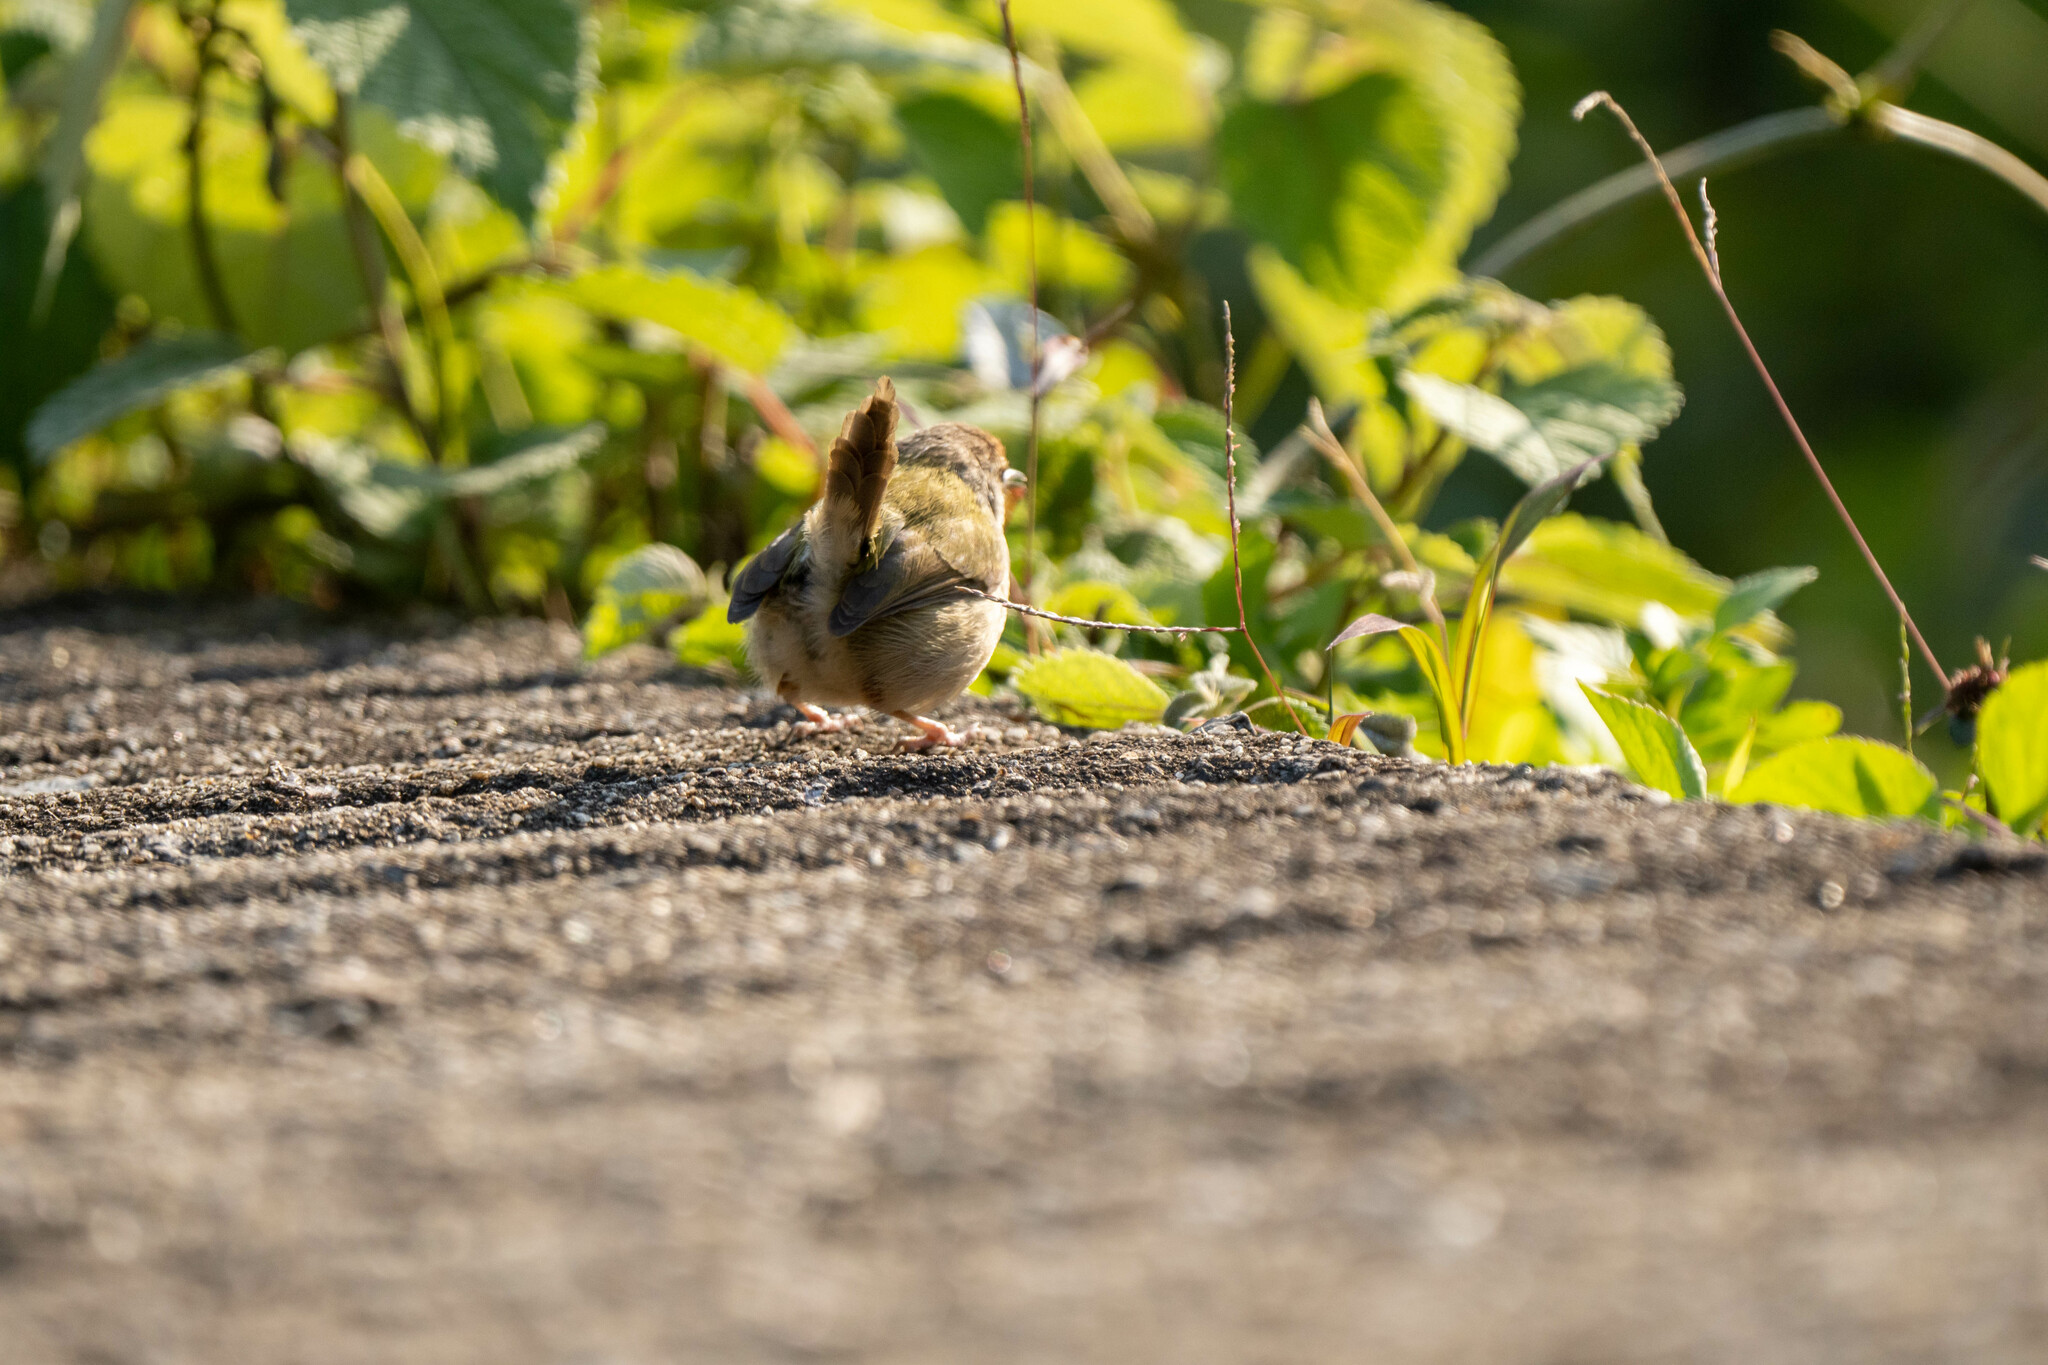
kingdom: Animalia
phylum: Chordata
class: Aves
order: Passeriformes
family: Cisticolidae
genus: Orthotomus
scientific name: Orthotomus sutorius
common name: Common tailorbird
